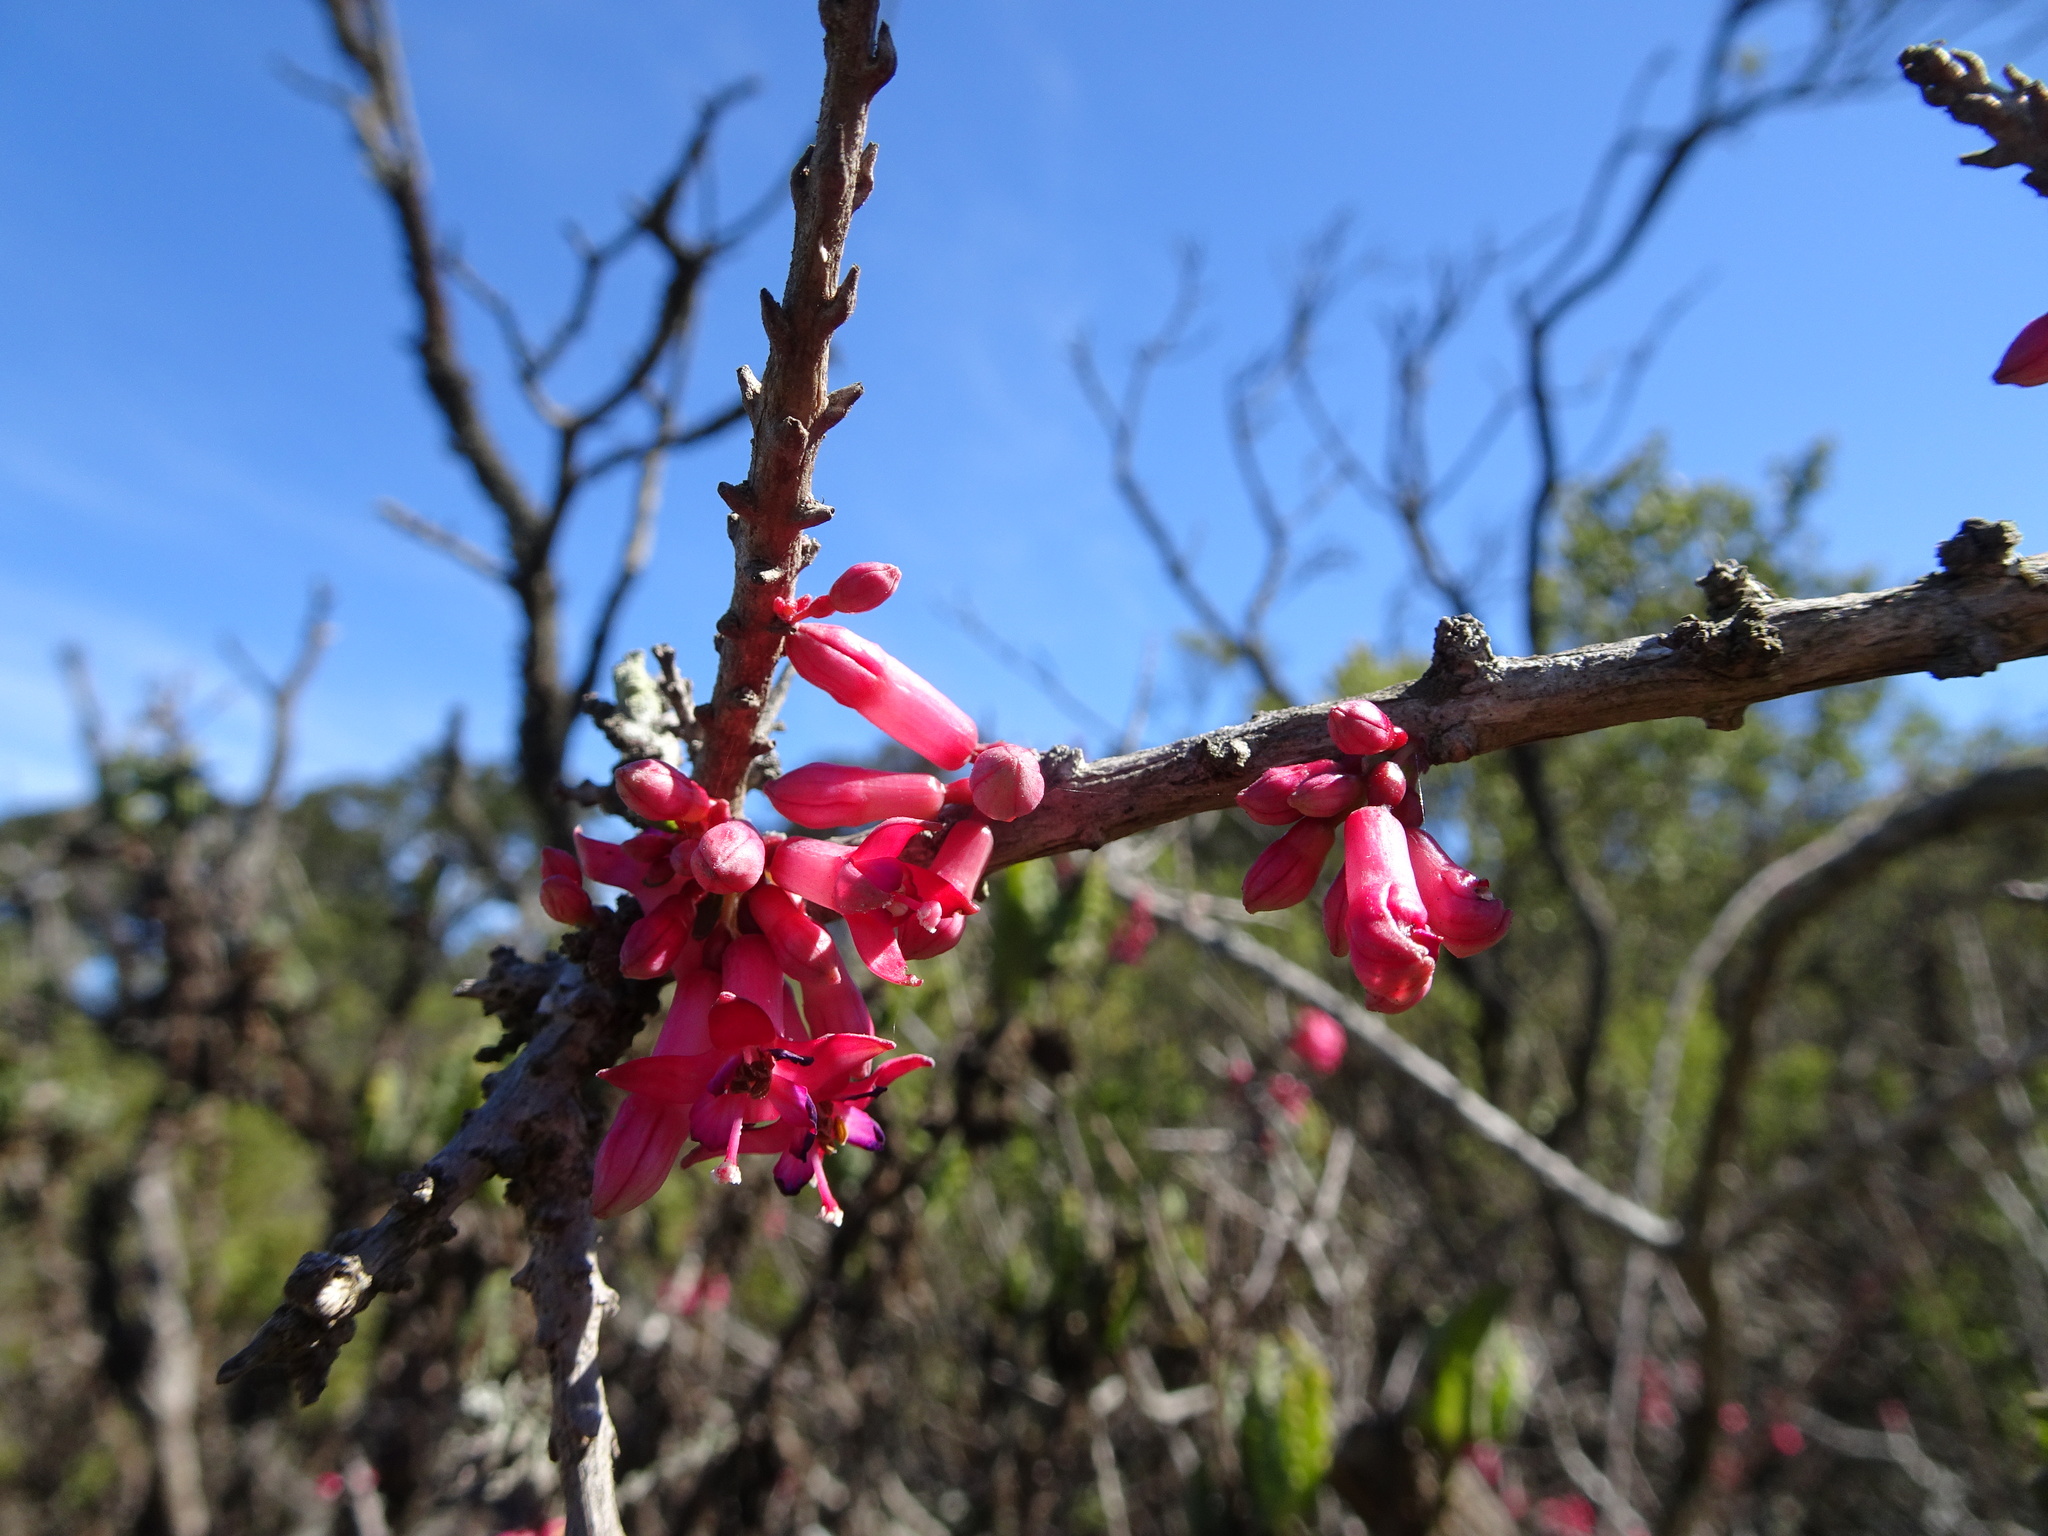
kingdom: Plantae
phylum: Tracheophyta
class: Magnoliopsida
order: Myrtales
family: Onagraceae
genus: Fuchsia
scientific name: Fuchsia lycioides
